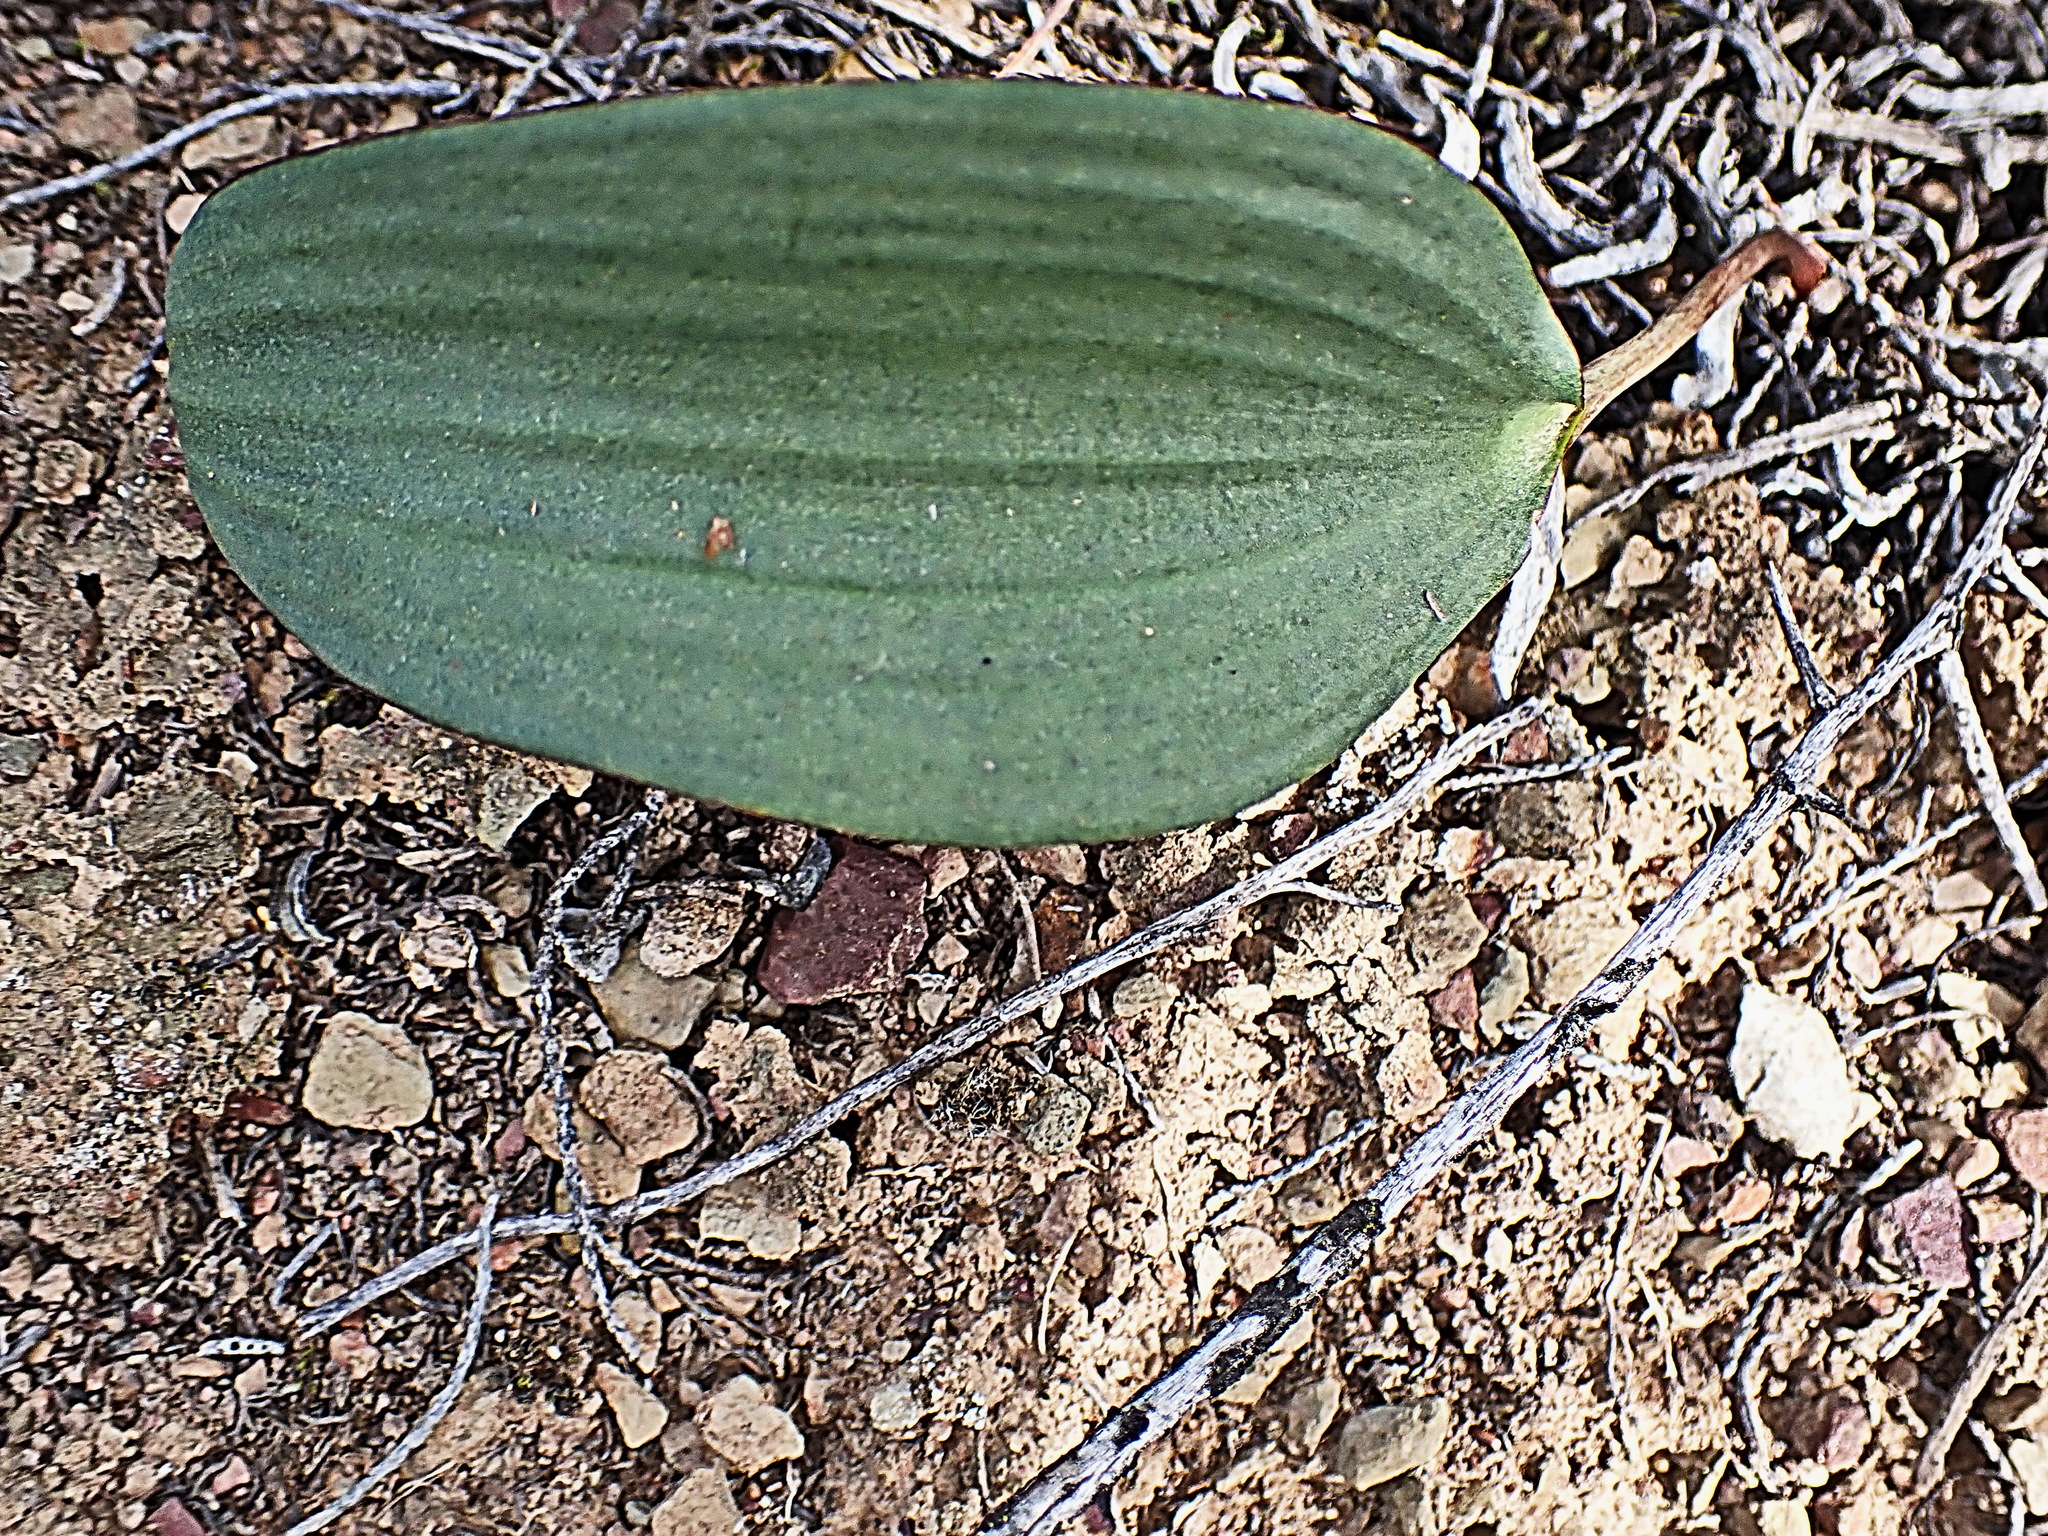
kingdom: Plantae
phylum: Tracheophyta
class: Liliopsida
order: Asparagales
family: Asparagaceae
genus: Eriospermum
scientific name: Eriospermum exile
